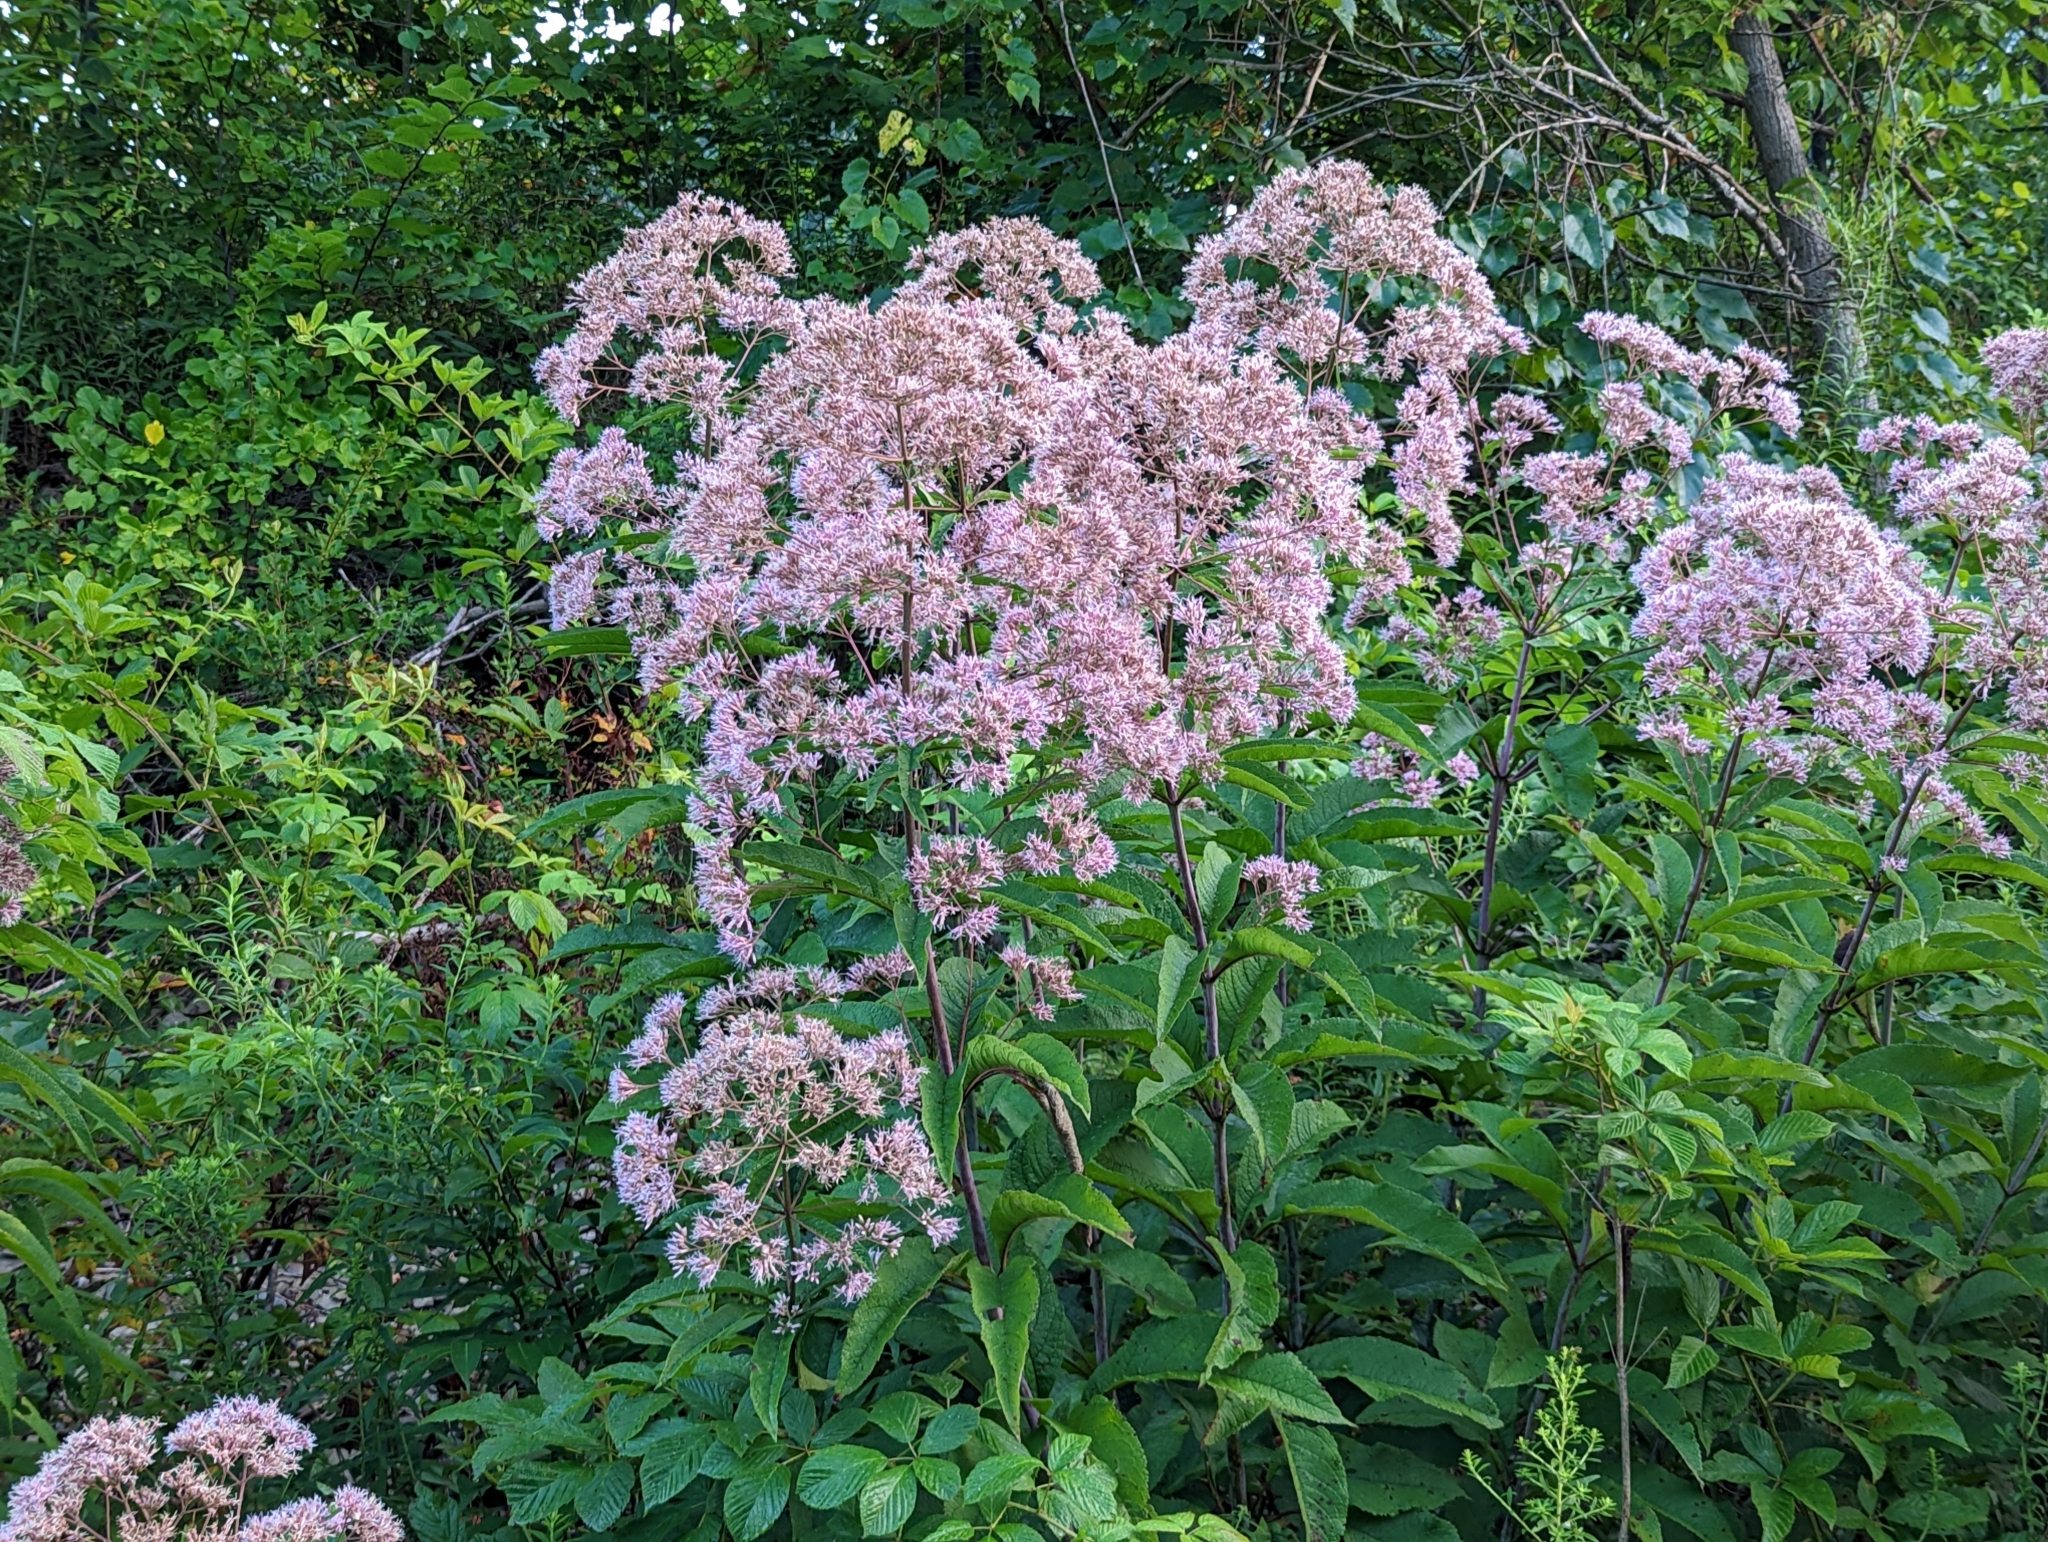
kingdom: Plantae
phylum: Tracheophyta
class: Magnoliopsida
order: Asterales
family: Asteraceae
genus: Eutrochium
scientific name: Eutrochium fistulosum
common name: Trumpetweed
